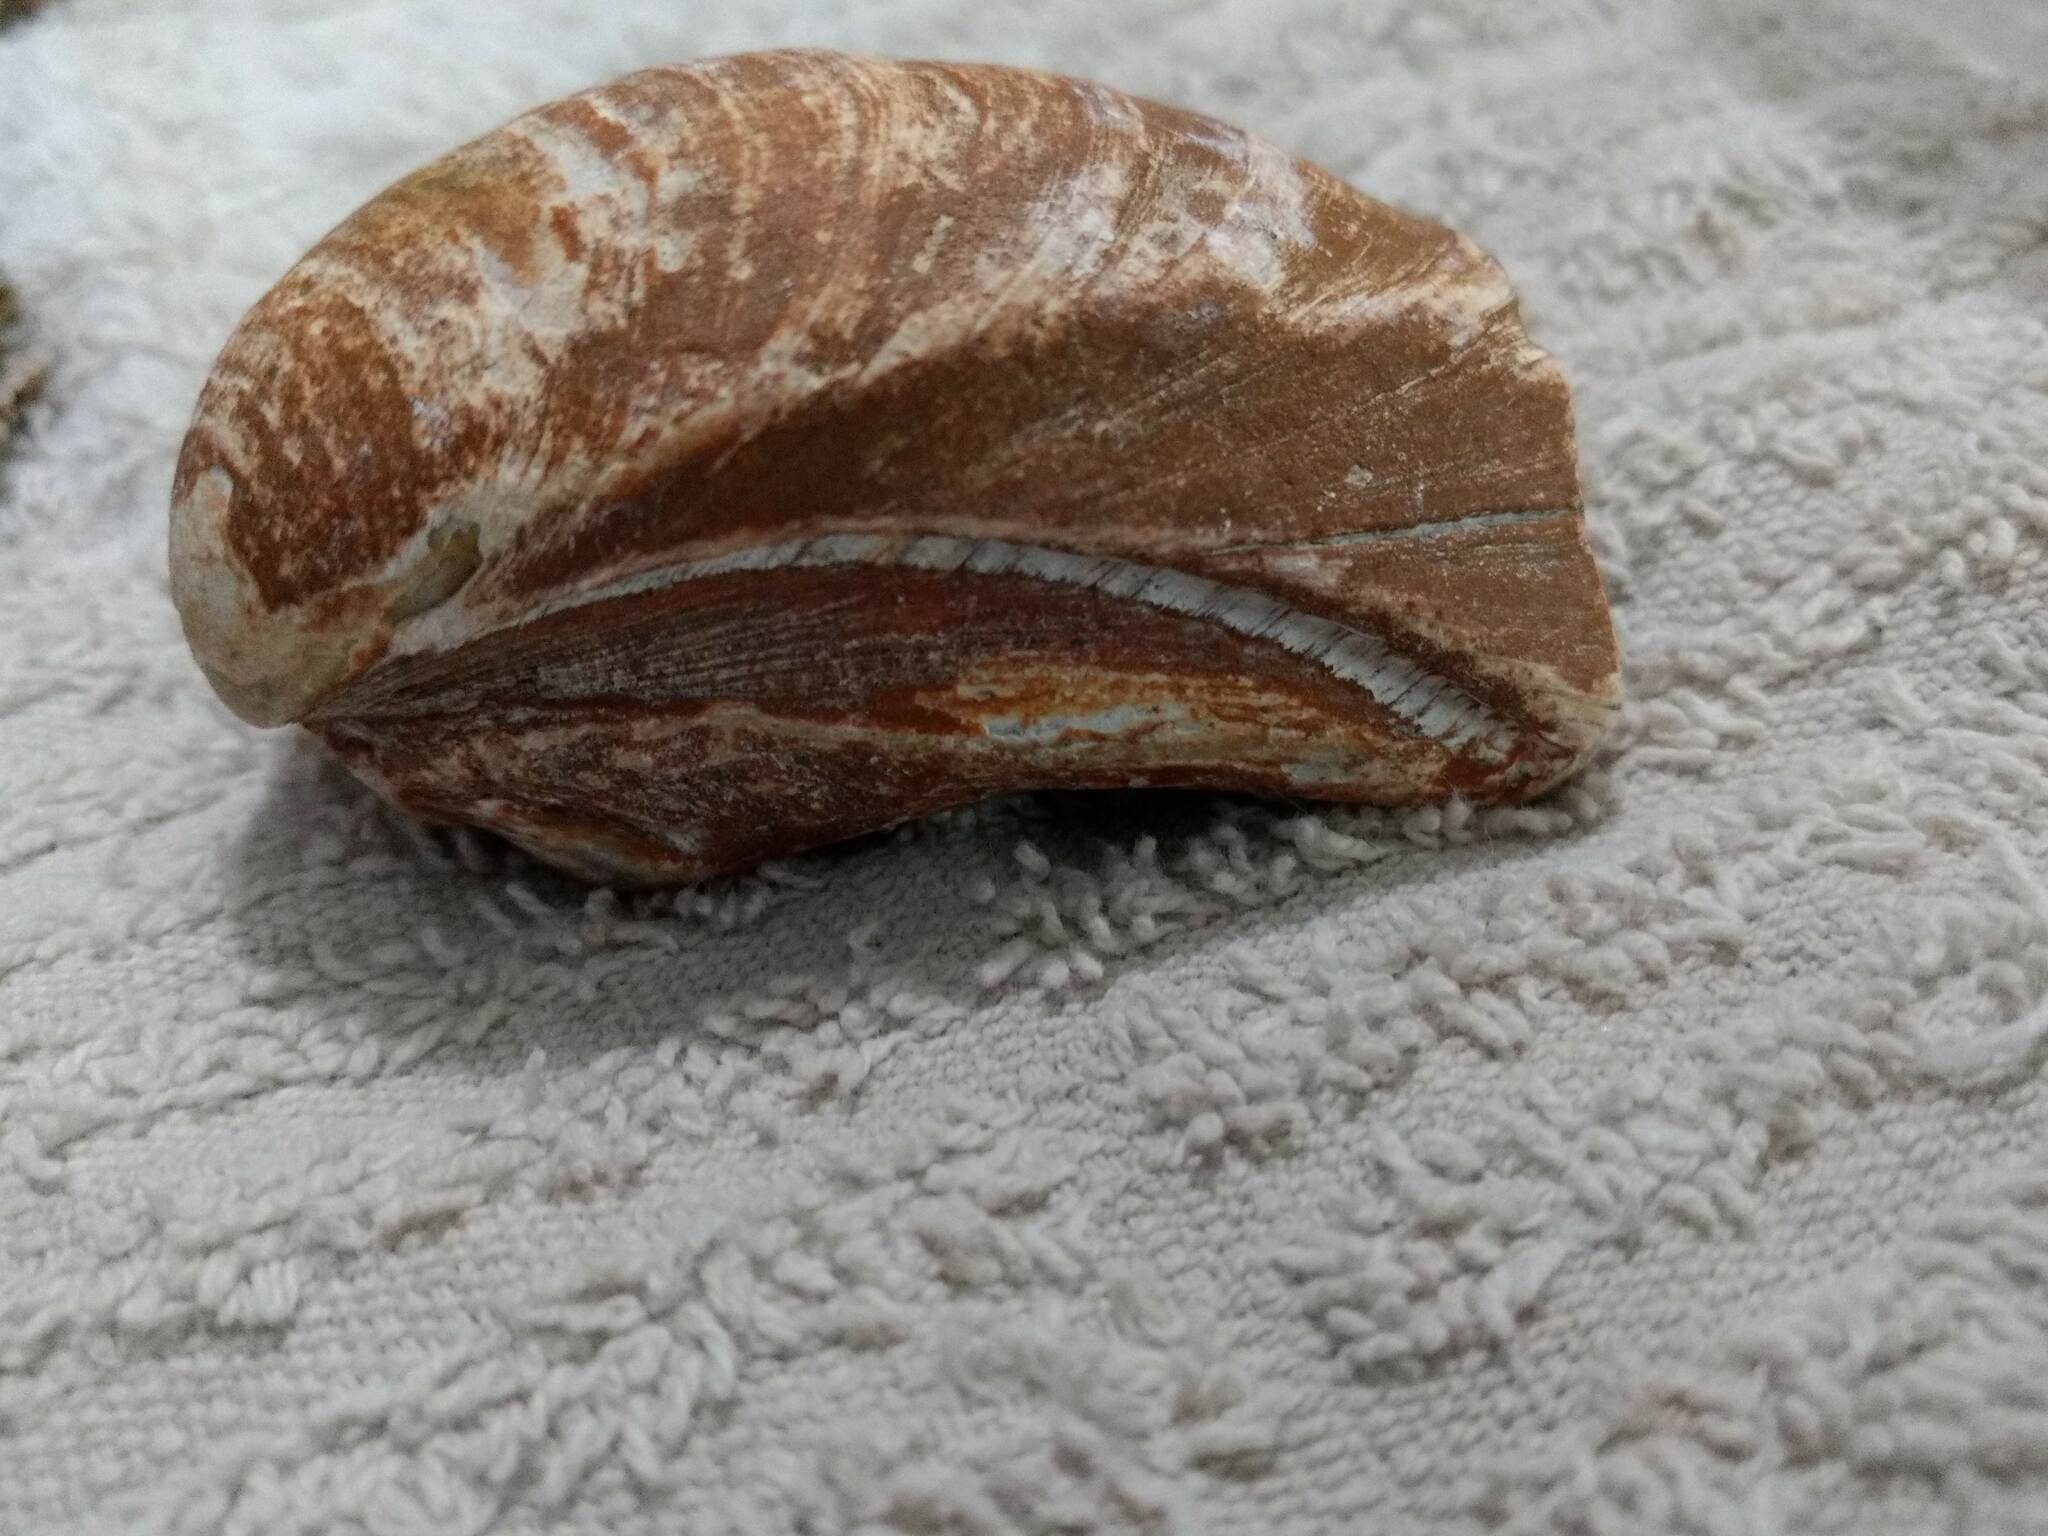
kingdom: Animalia
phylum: Mollusca
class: Bivalvia
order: Venerida
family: Veneridae
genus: Mercenaria
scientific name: Mercenaria
